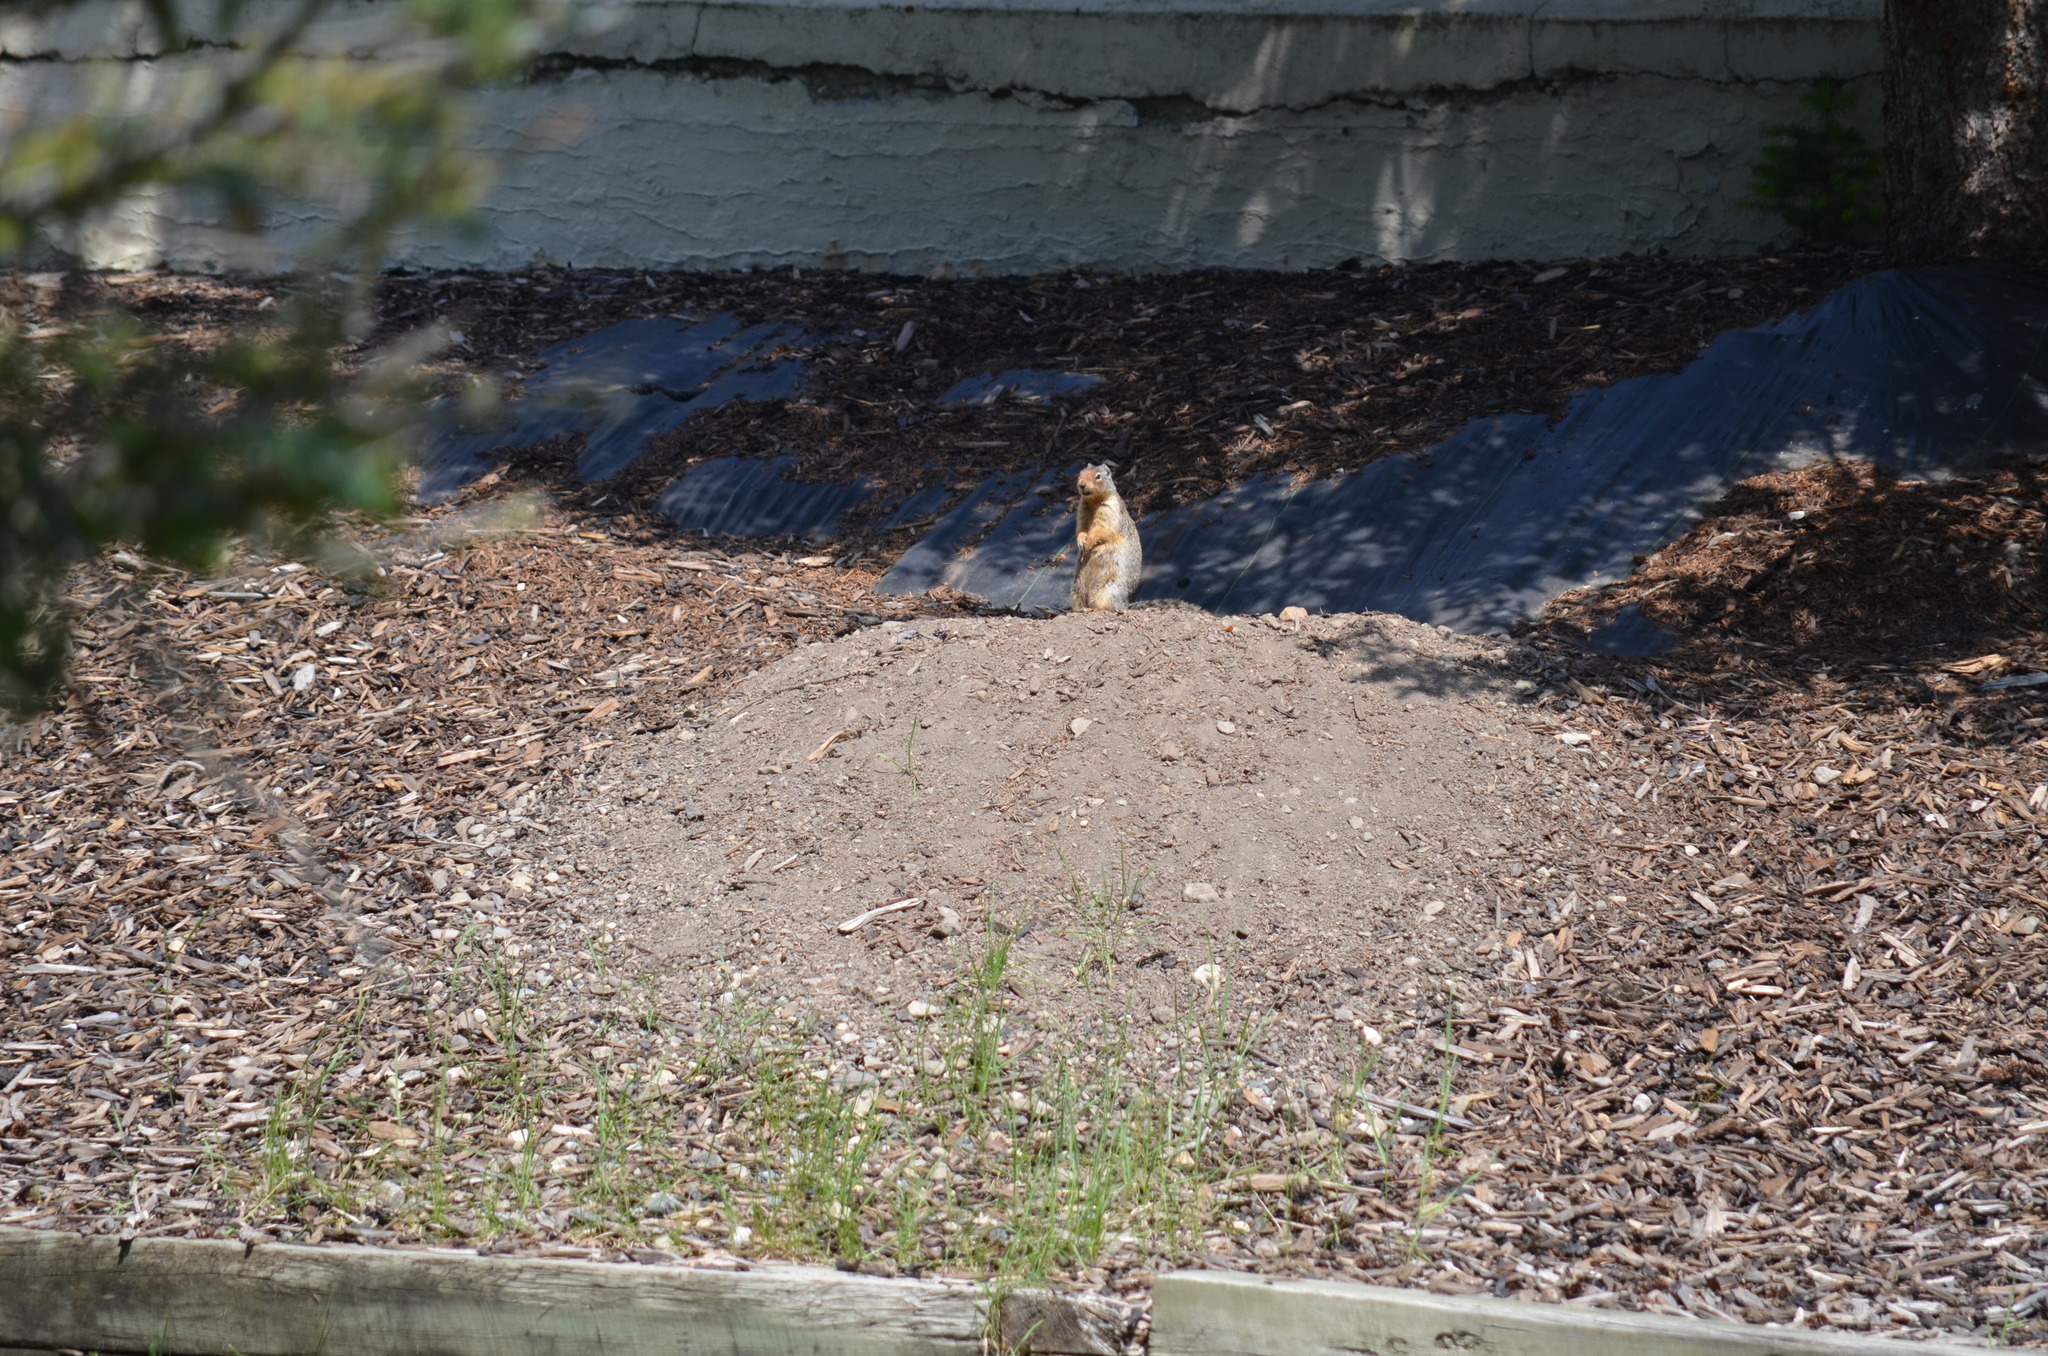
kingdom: Animalia
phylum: Chordata
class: Mammalia
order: Rodentia
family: Sciuridae
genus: Urocitellus
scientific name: Urocitellus columbianus
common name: Columbian ground squirrel
